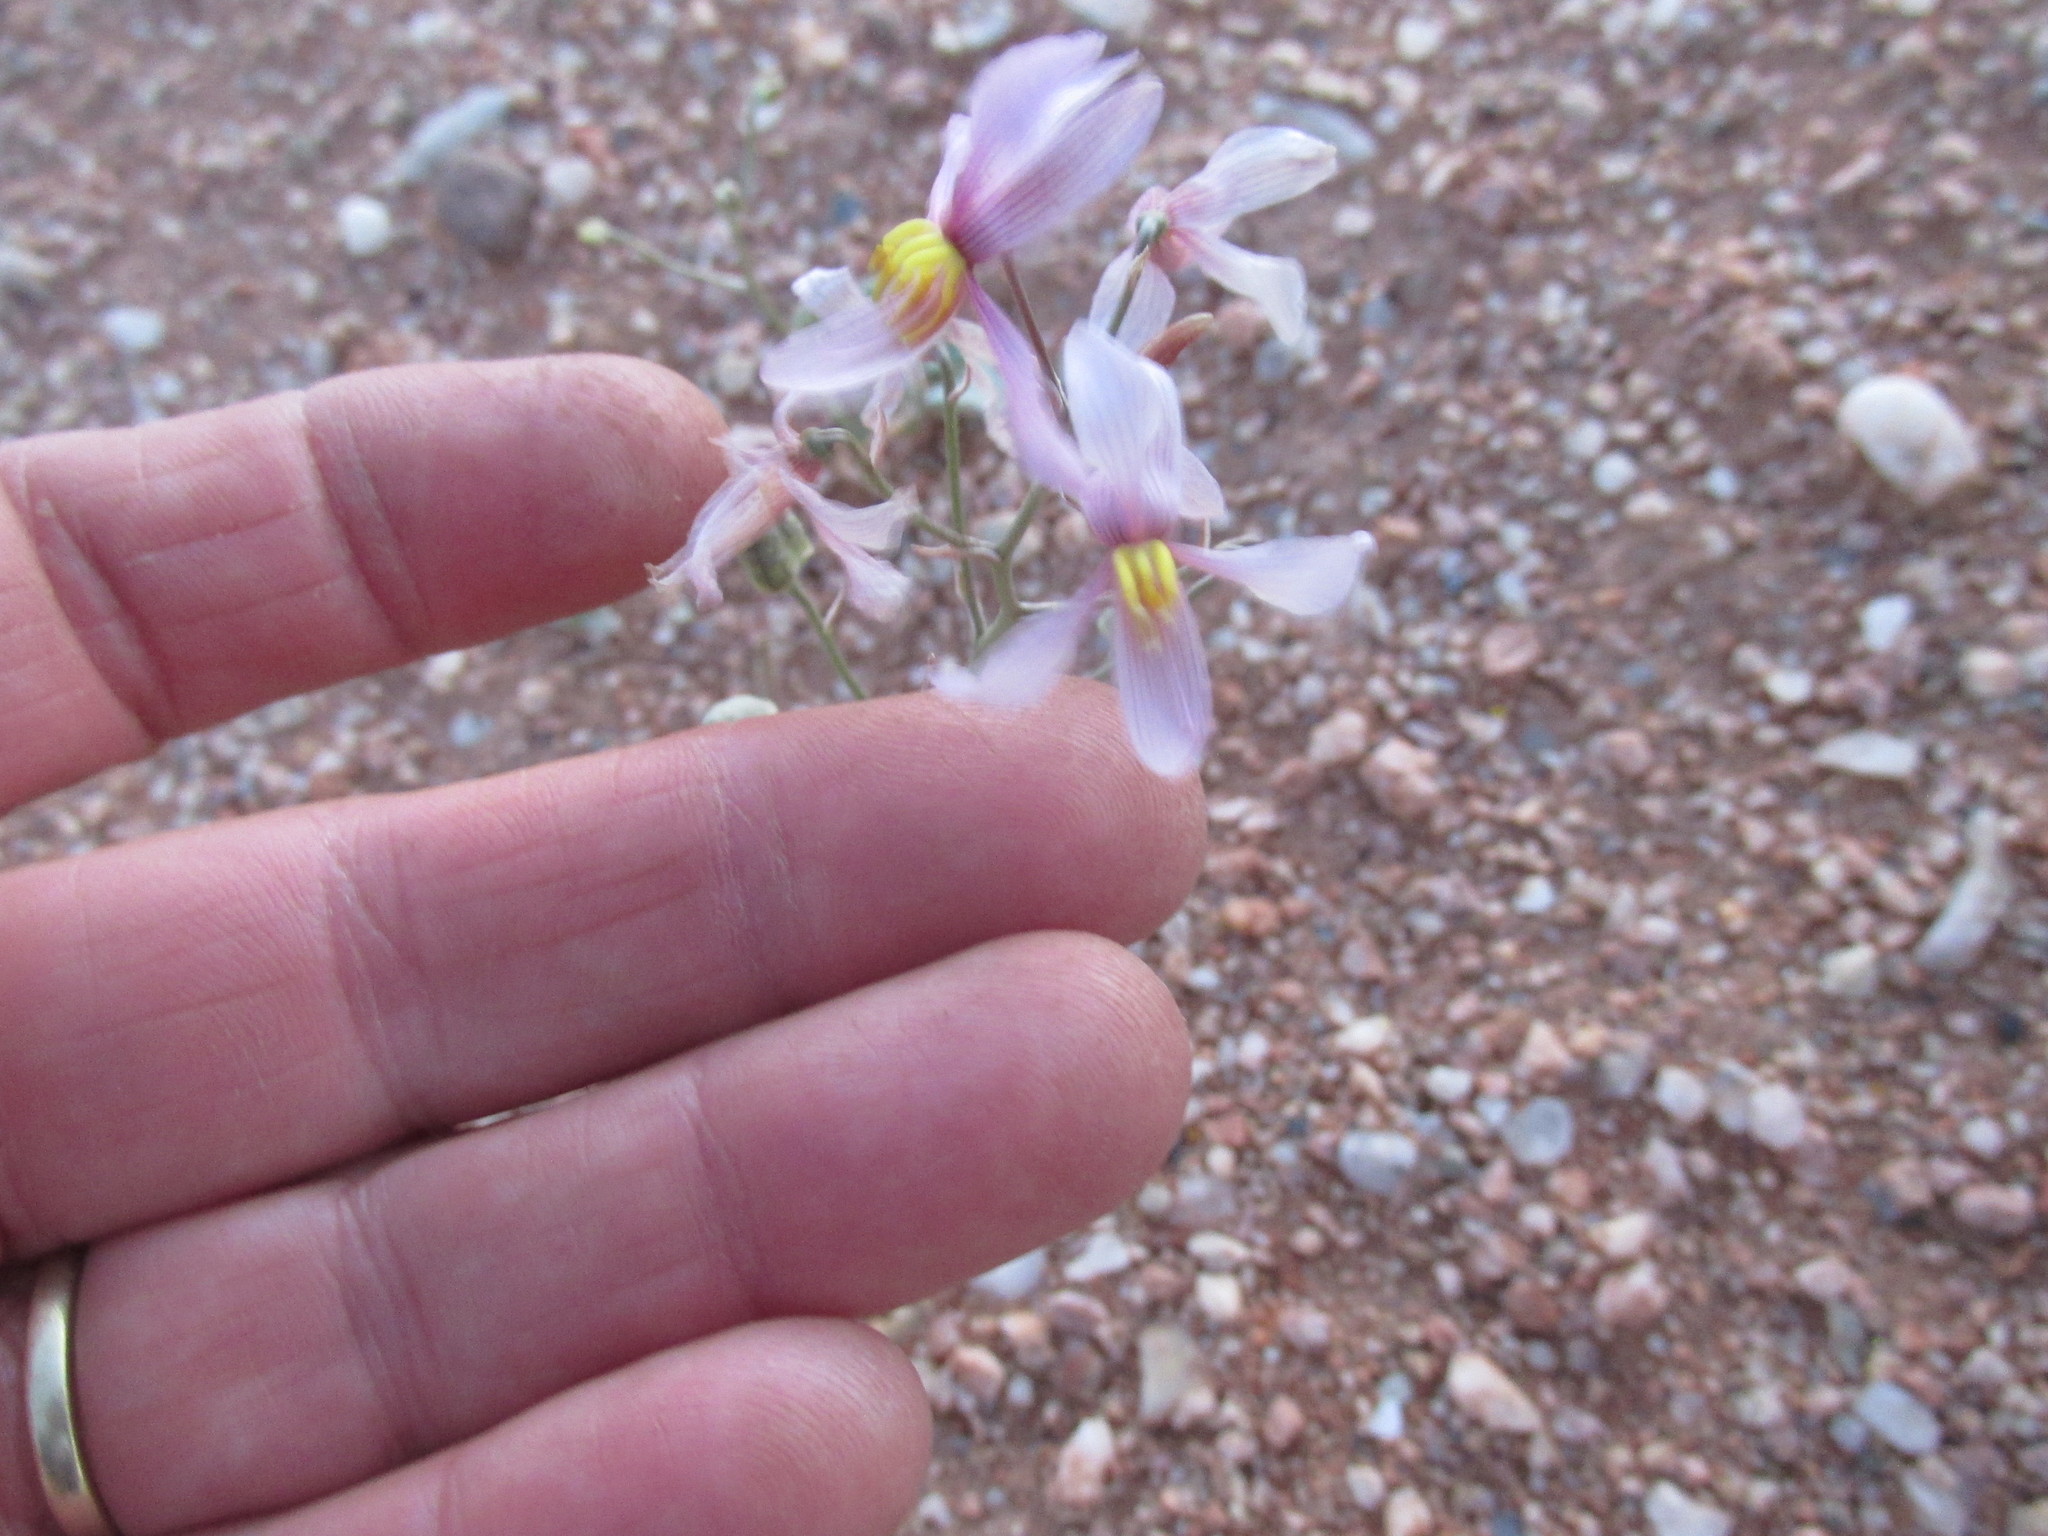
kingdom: Plantae
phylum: Tracheophyta
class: Liliopsida
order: Asparagales
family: Tecophilaeaceae
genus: Cyanella
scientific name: Cyanella ramosissima
